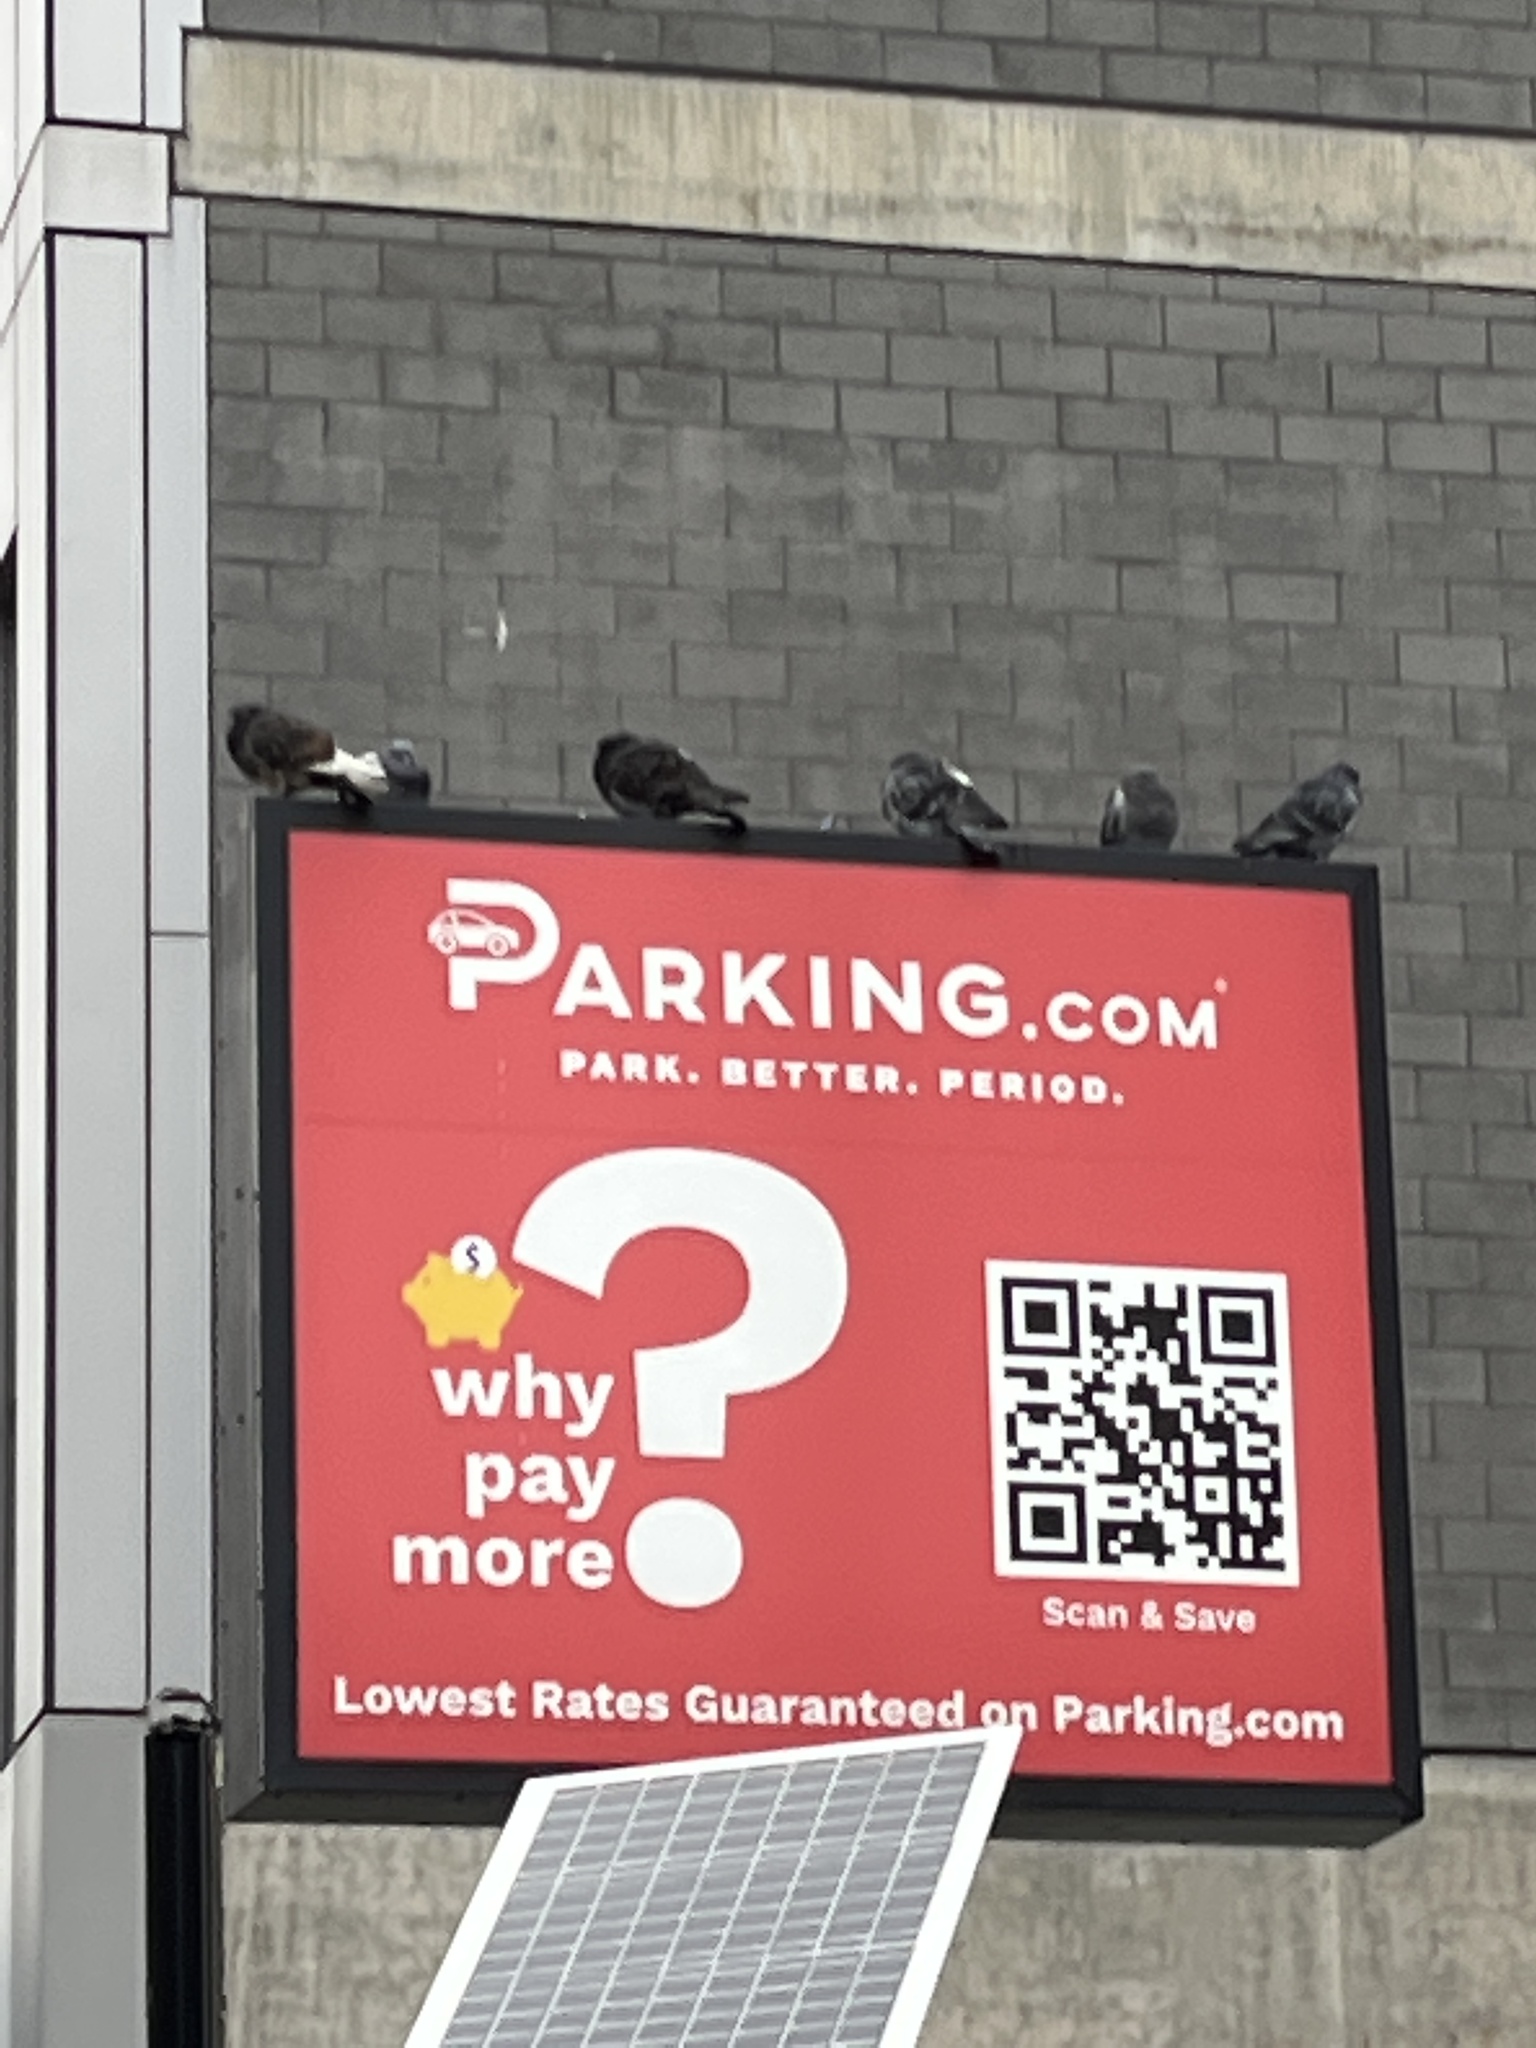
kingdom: Animalia
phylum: Chordata
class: Aves
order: Columbiformes
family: Columbidae
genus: Columba
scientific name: Columba livia
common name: Rock pigeon
